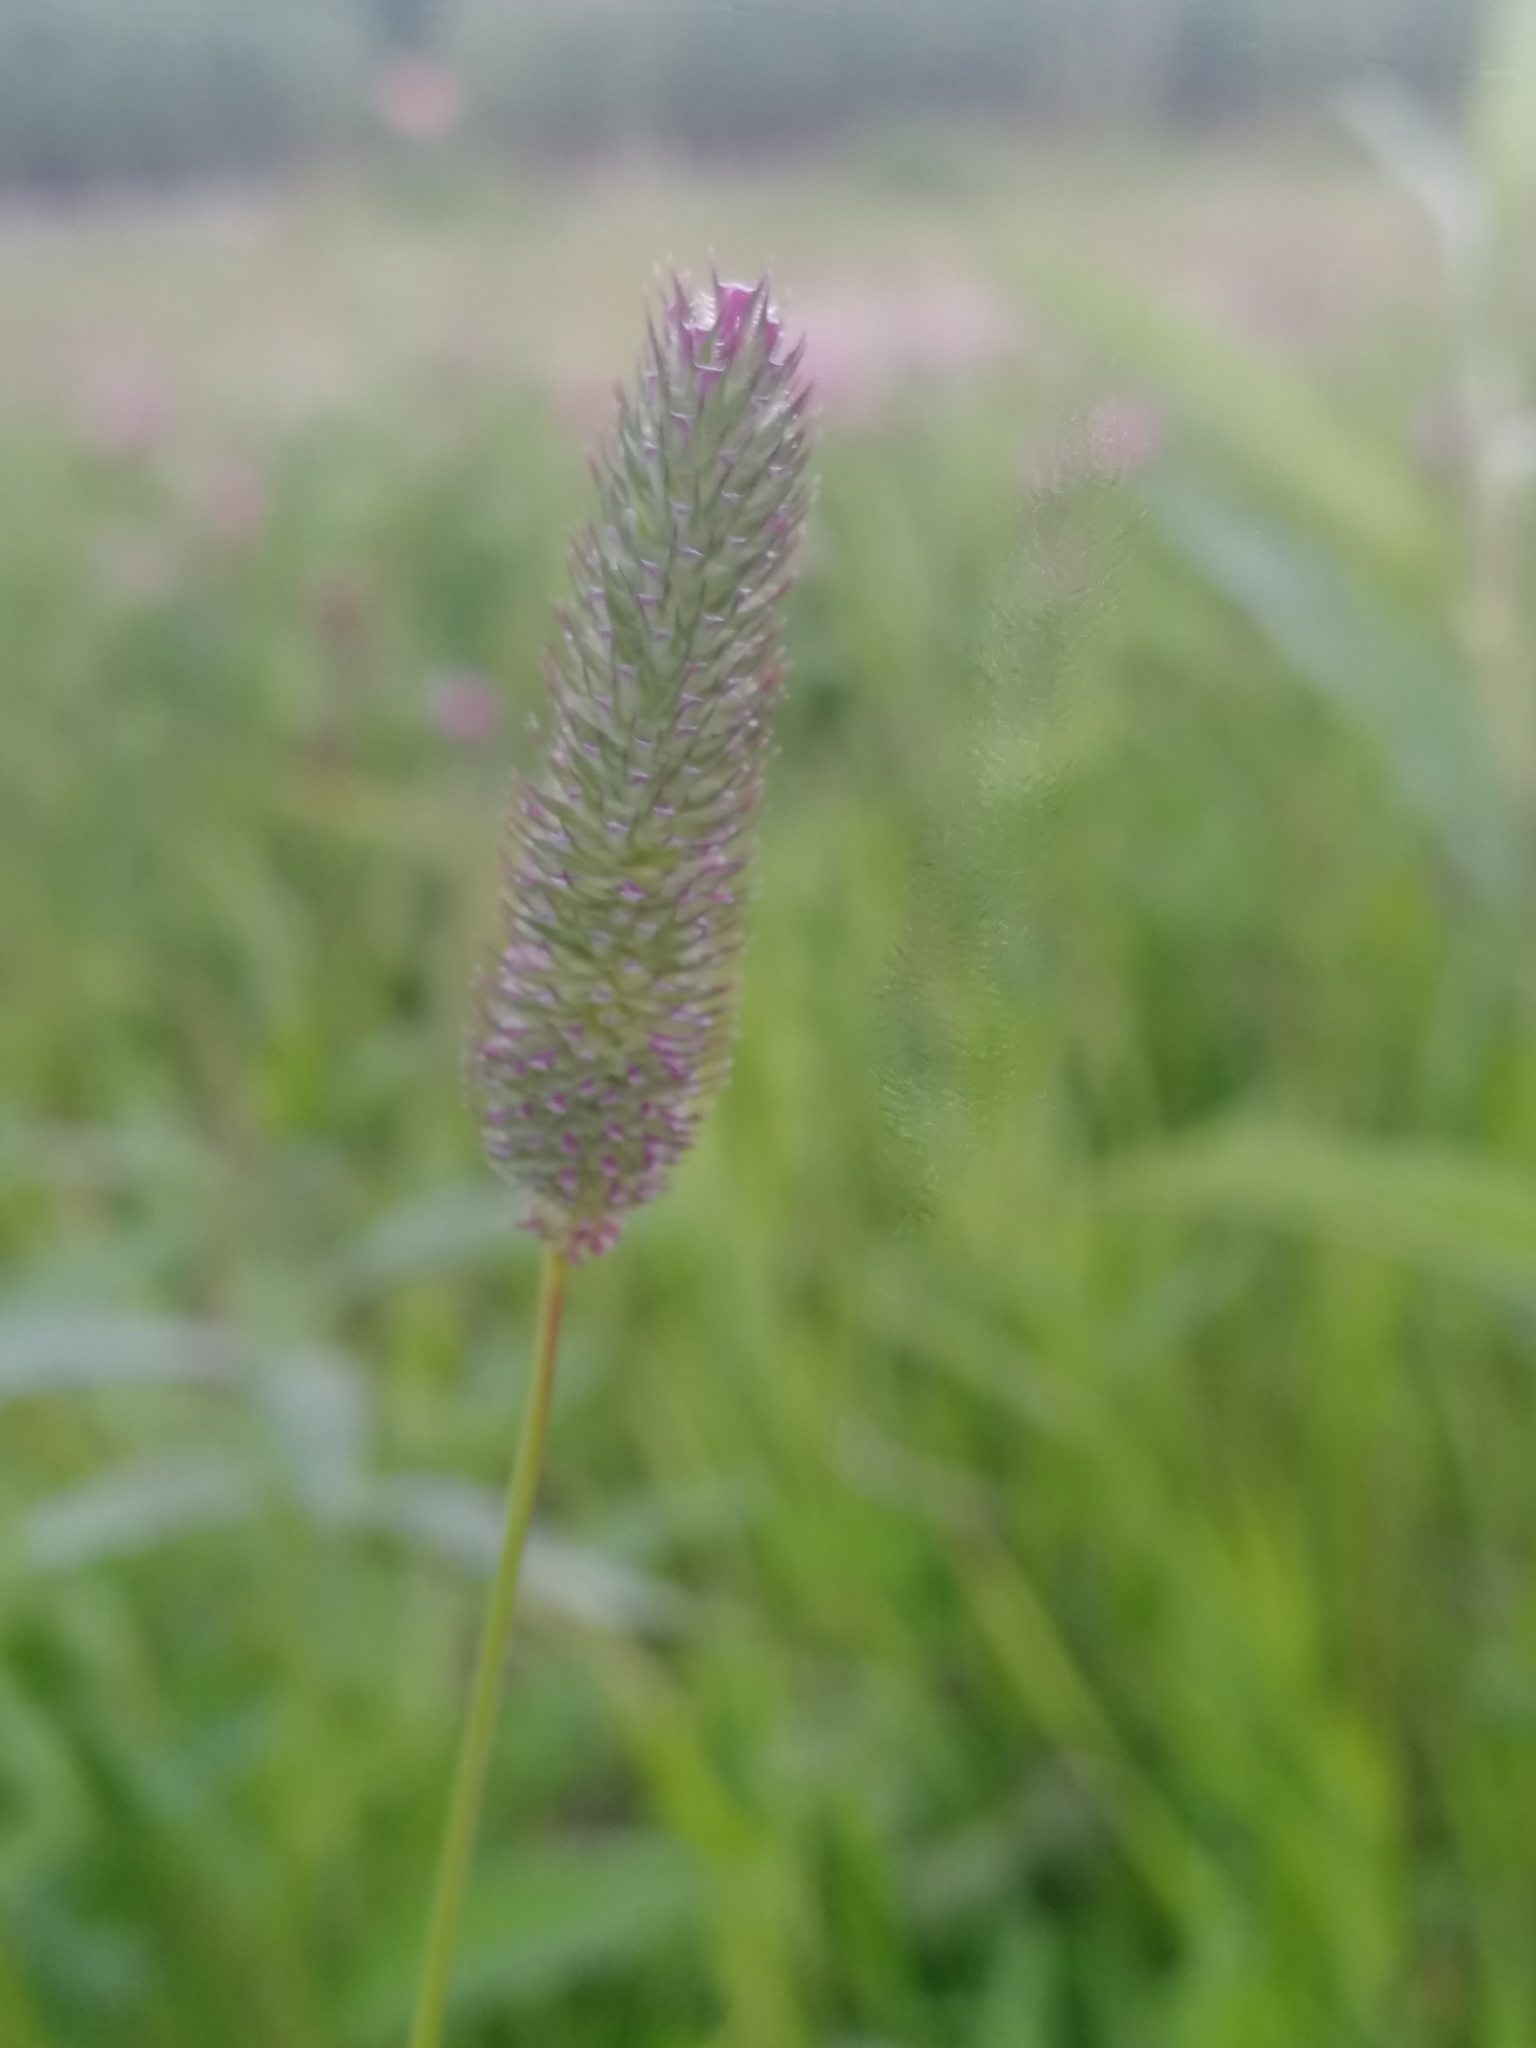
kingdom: Plantae
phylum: Tracheophyta
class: Liliopsida
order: Poales
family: Poaceae
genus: Phleum
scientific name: Phleum pratense
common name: Timothy grass
